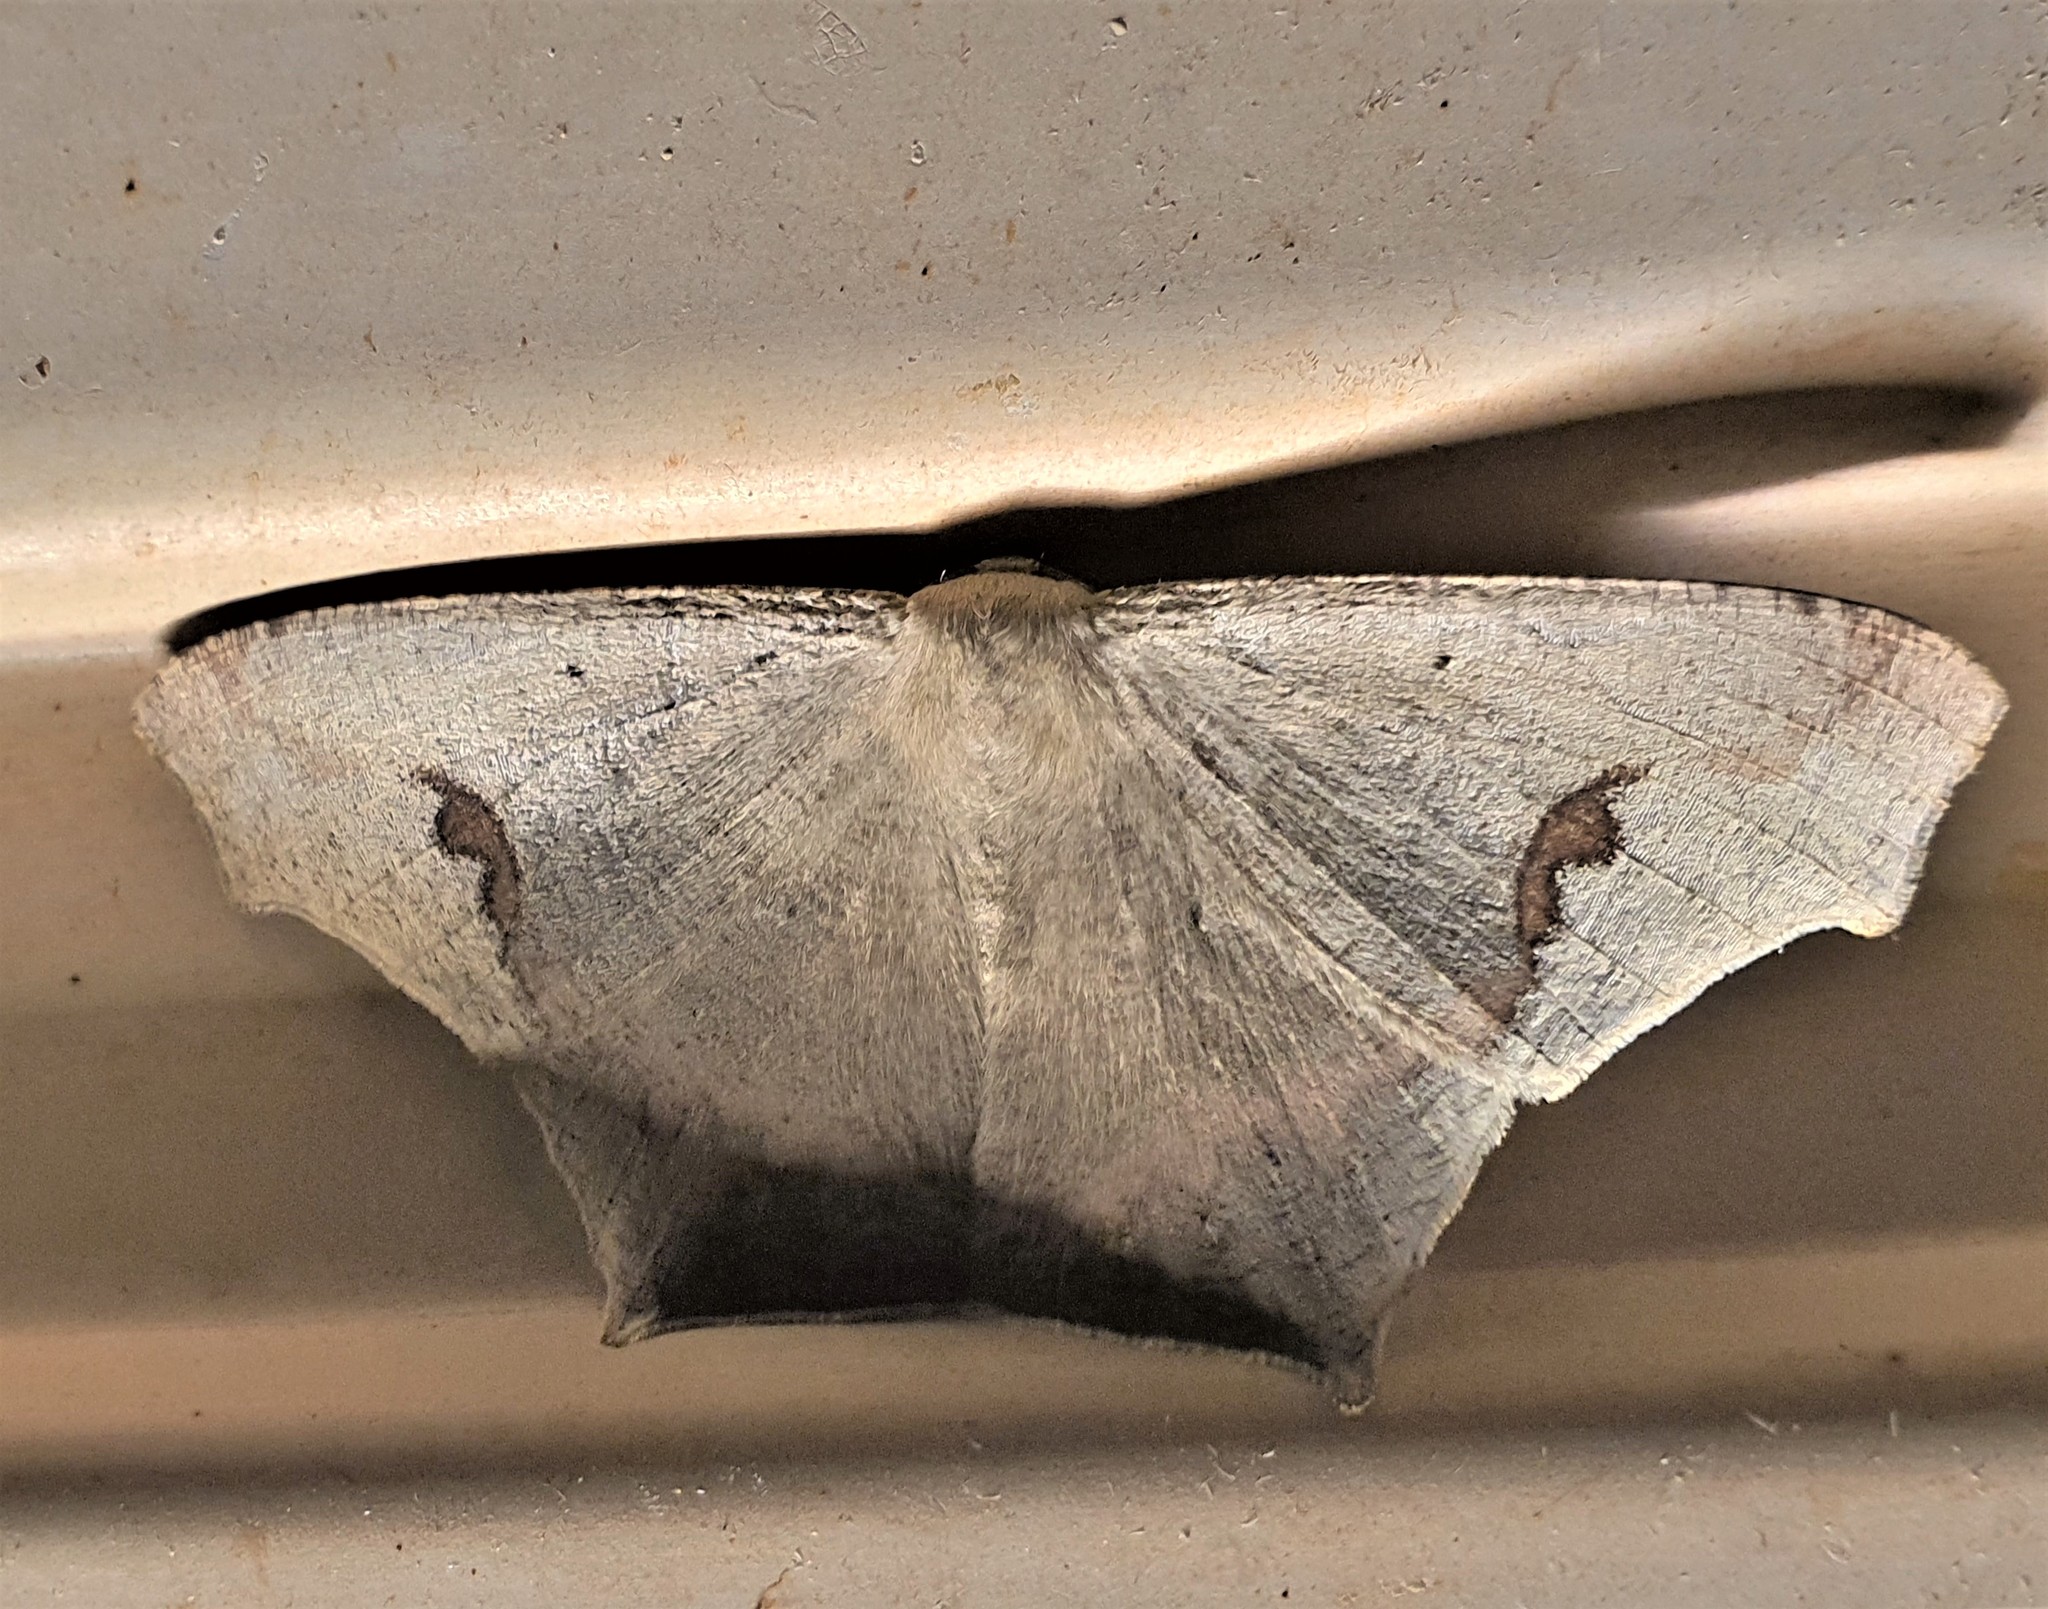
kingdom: Animalia
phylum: Arthropoda
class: Insecta
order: Lepidoptera
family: Geometridae
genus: Euclysia
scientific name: Euclysia dentifasciata
